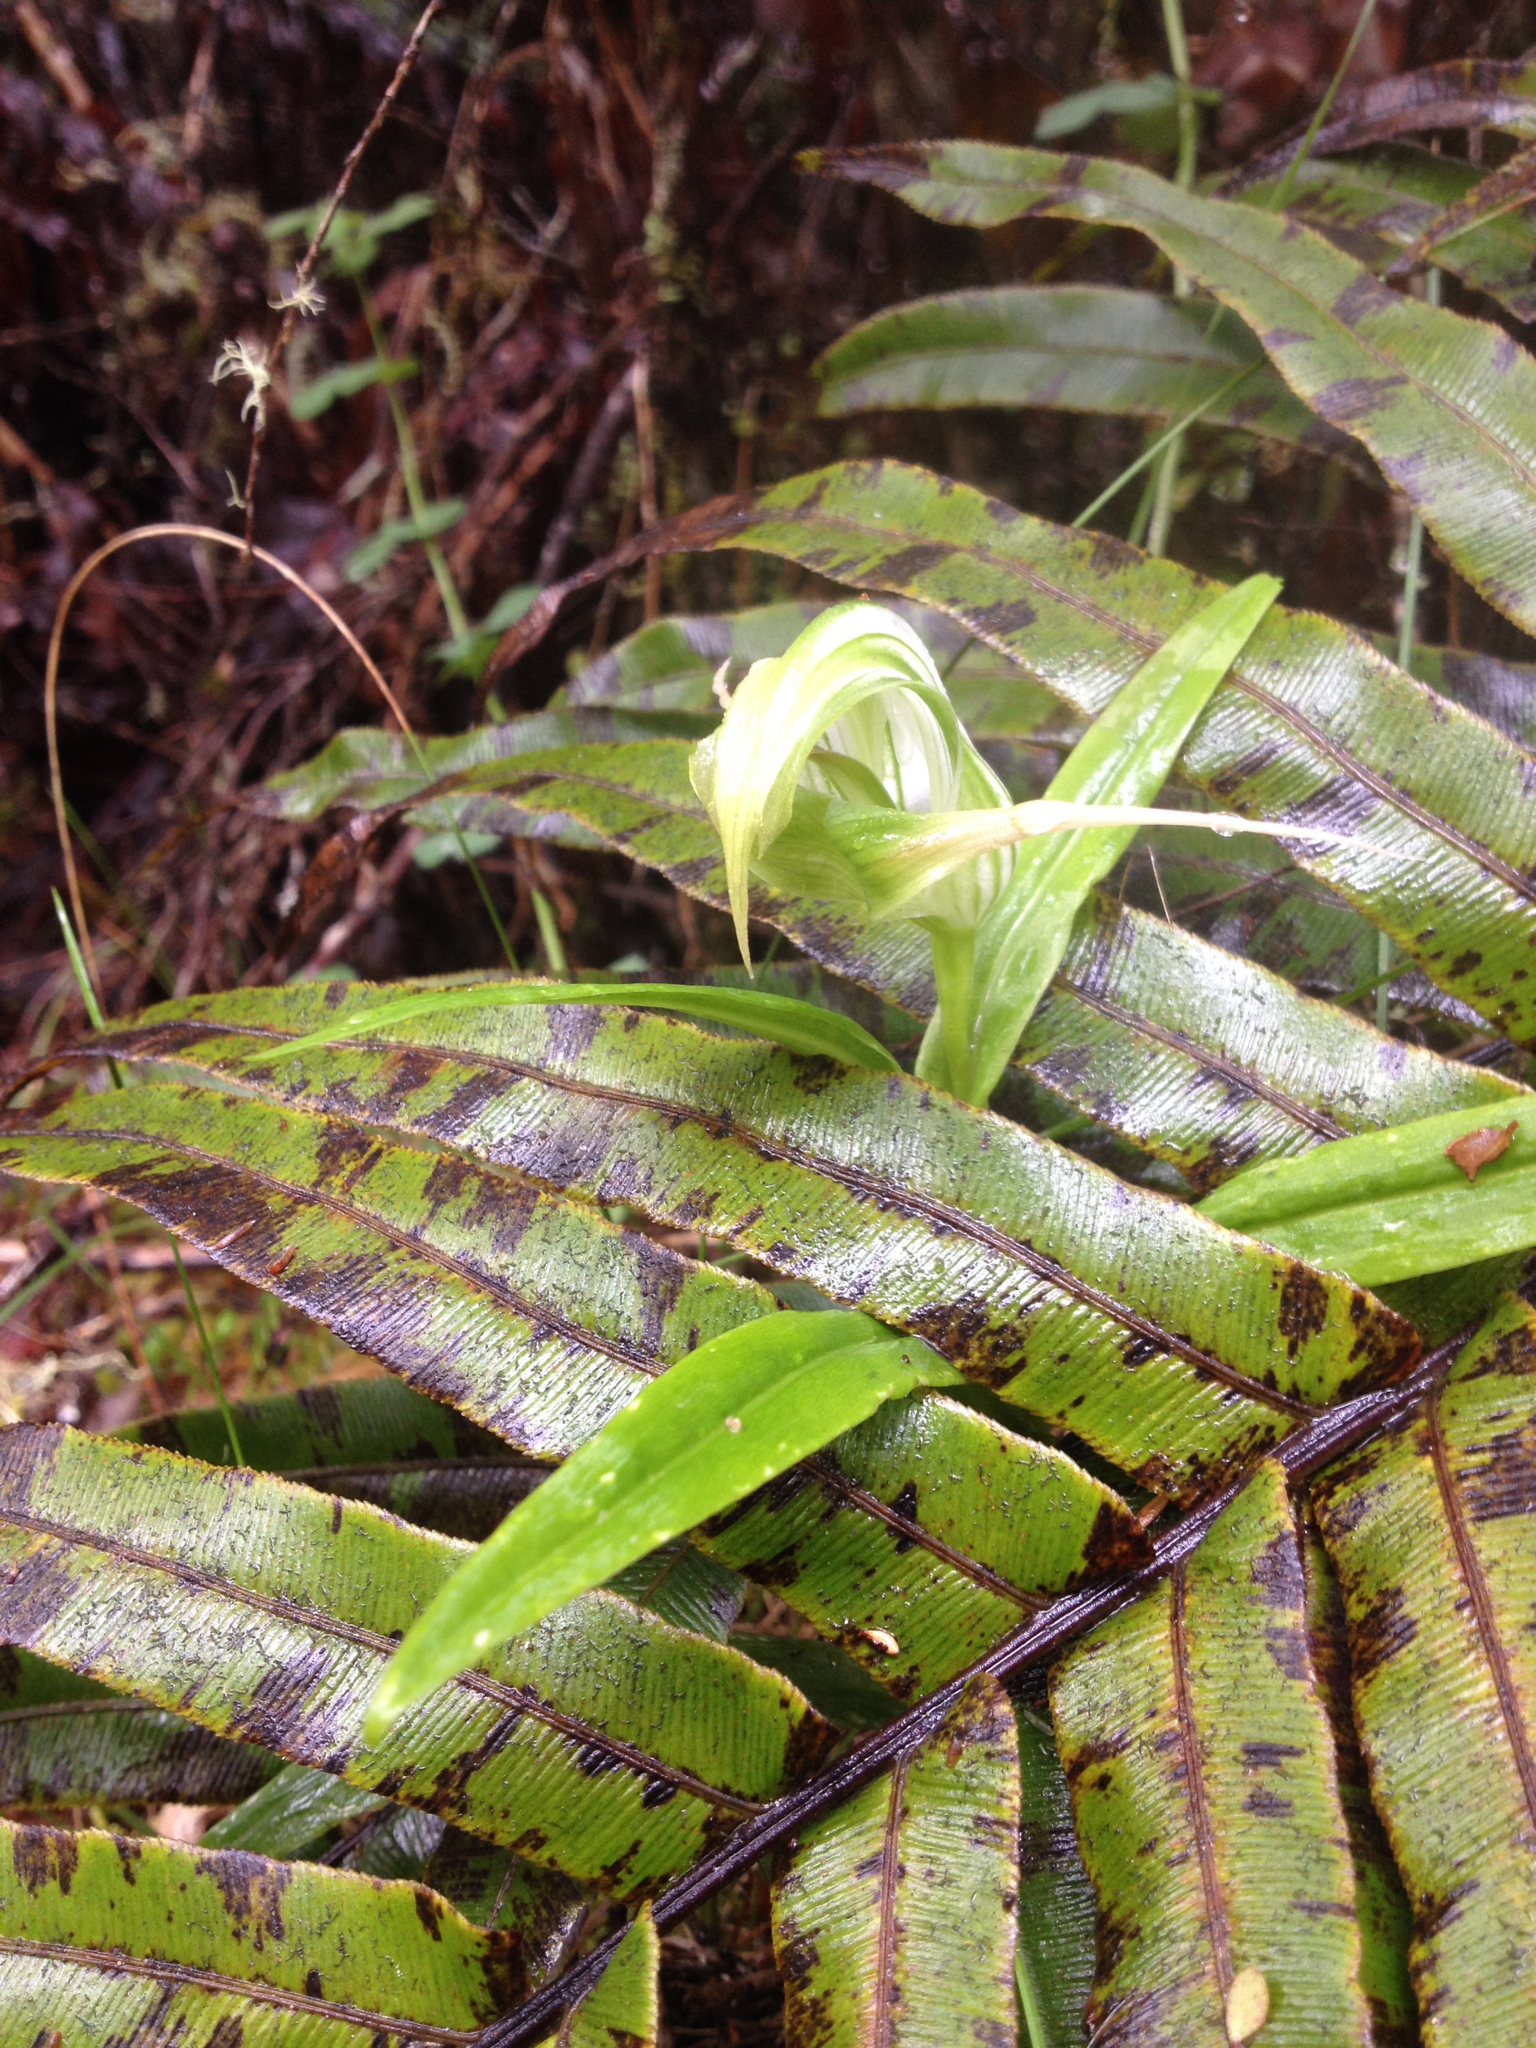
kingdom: Plantae
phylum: Tracheophyta
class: Liliopsida
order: Asparagales
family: Orchidaceae
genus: Pterostylis
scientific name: Pterostylis patens
